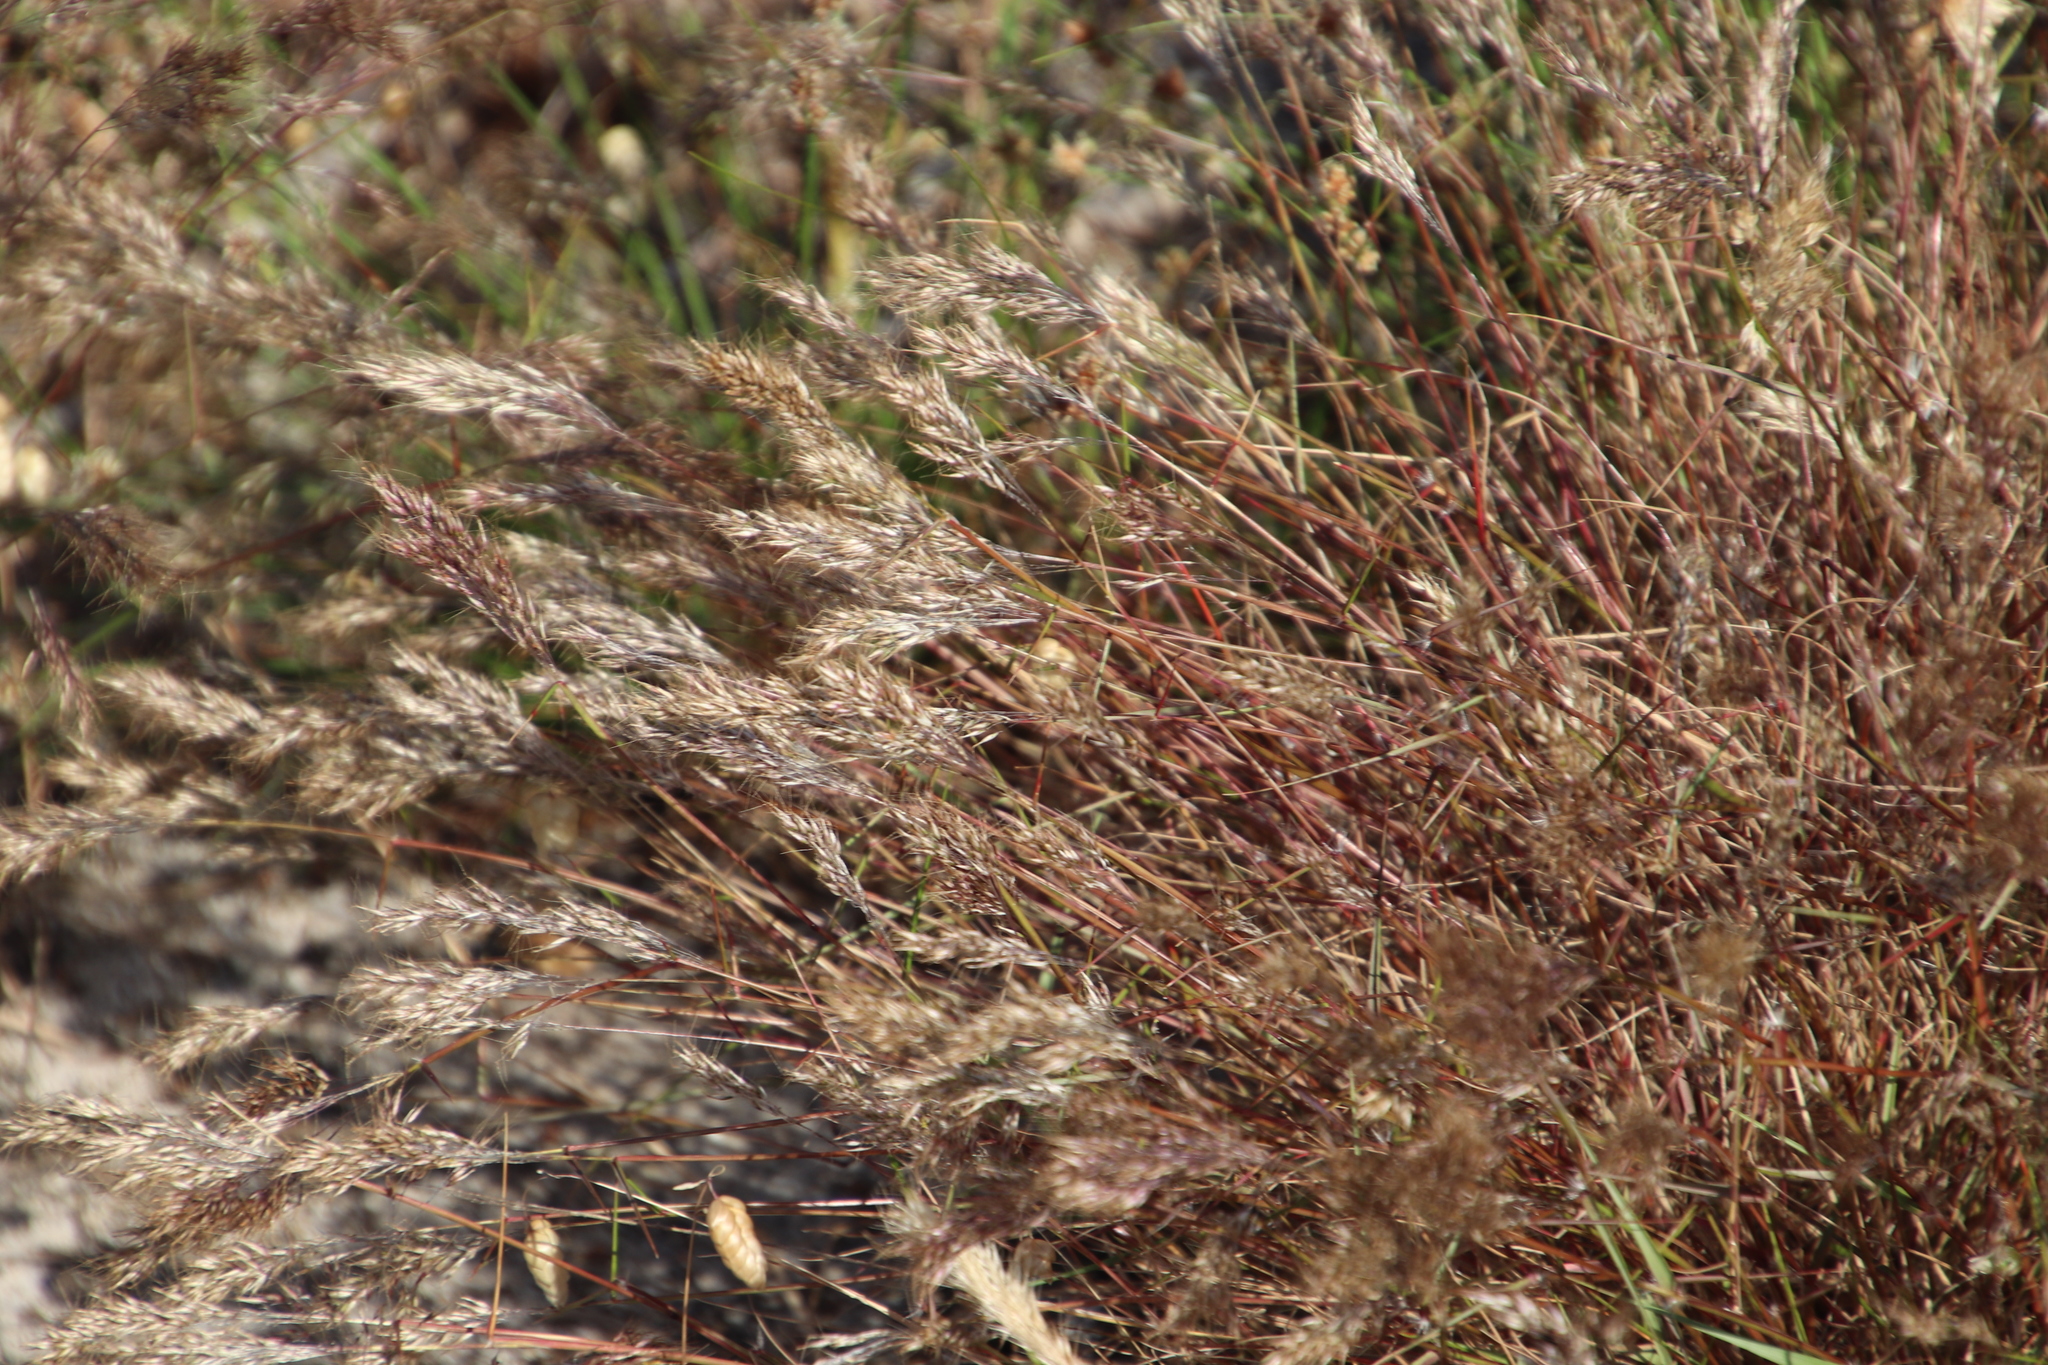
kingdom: Plantae
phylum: Tracheophyta
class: Liliopsida
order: Poales
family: Poaceae
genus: Pentameris
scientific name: Pentameris pallida
